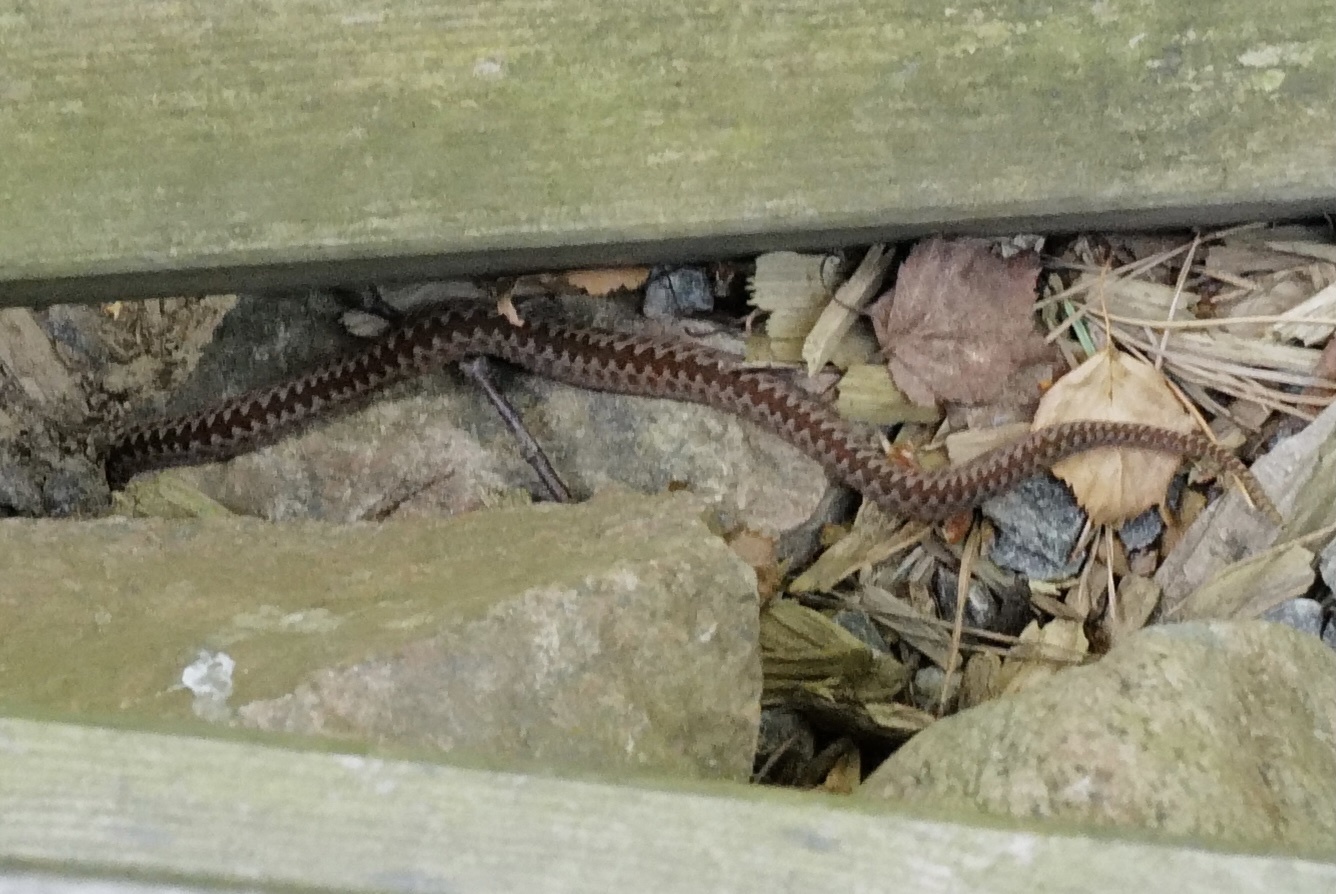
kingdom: Animalia
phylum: Chordata
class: Squamata
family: Viperidae
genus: Vipera
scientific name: Vipera berus
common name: Adder
